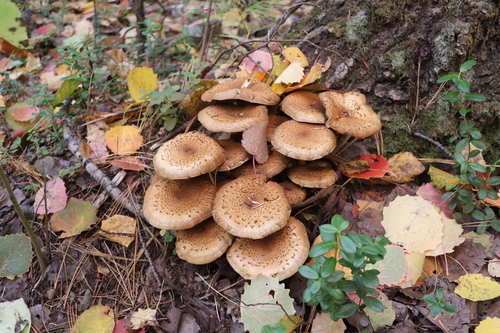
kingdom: Fungi
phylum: Basidiomycota
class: Agaricomycetes
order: Agaricales
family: Strophariaceae
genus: Pholiota
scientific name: Pholiota squarrosa
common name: Shaggy pholiota
